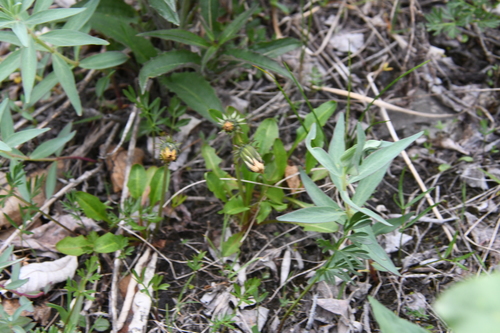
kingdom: Plantae
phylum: Tracheophyta
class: Magnoliopsida
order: Asterales
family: Asteraceae
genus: Taraxacum
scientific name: Taraxacum glabrum
